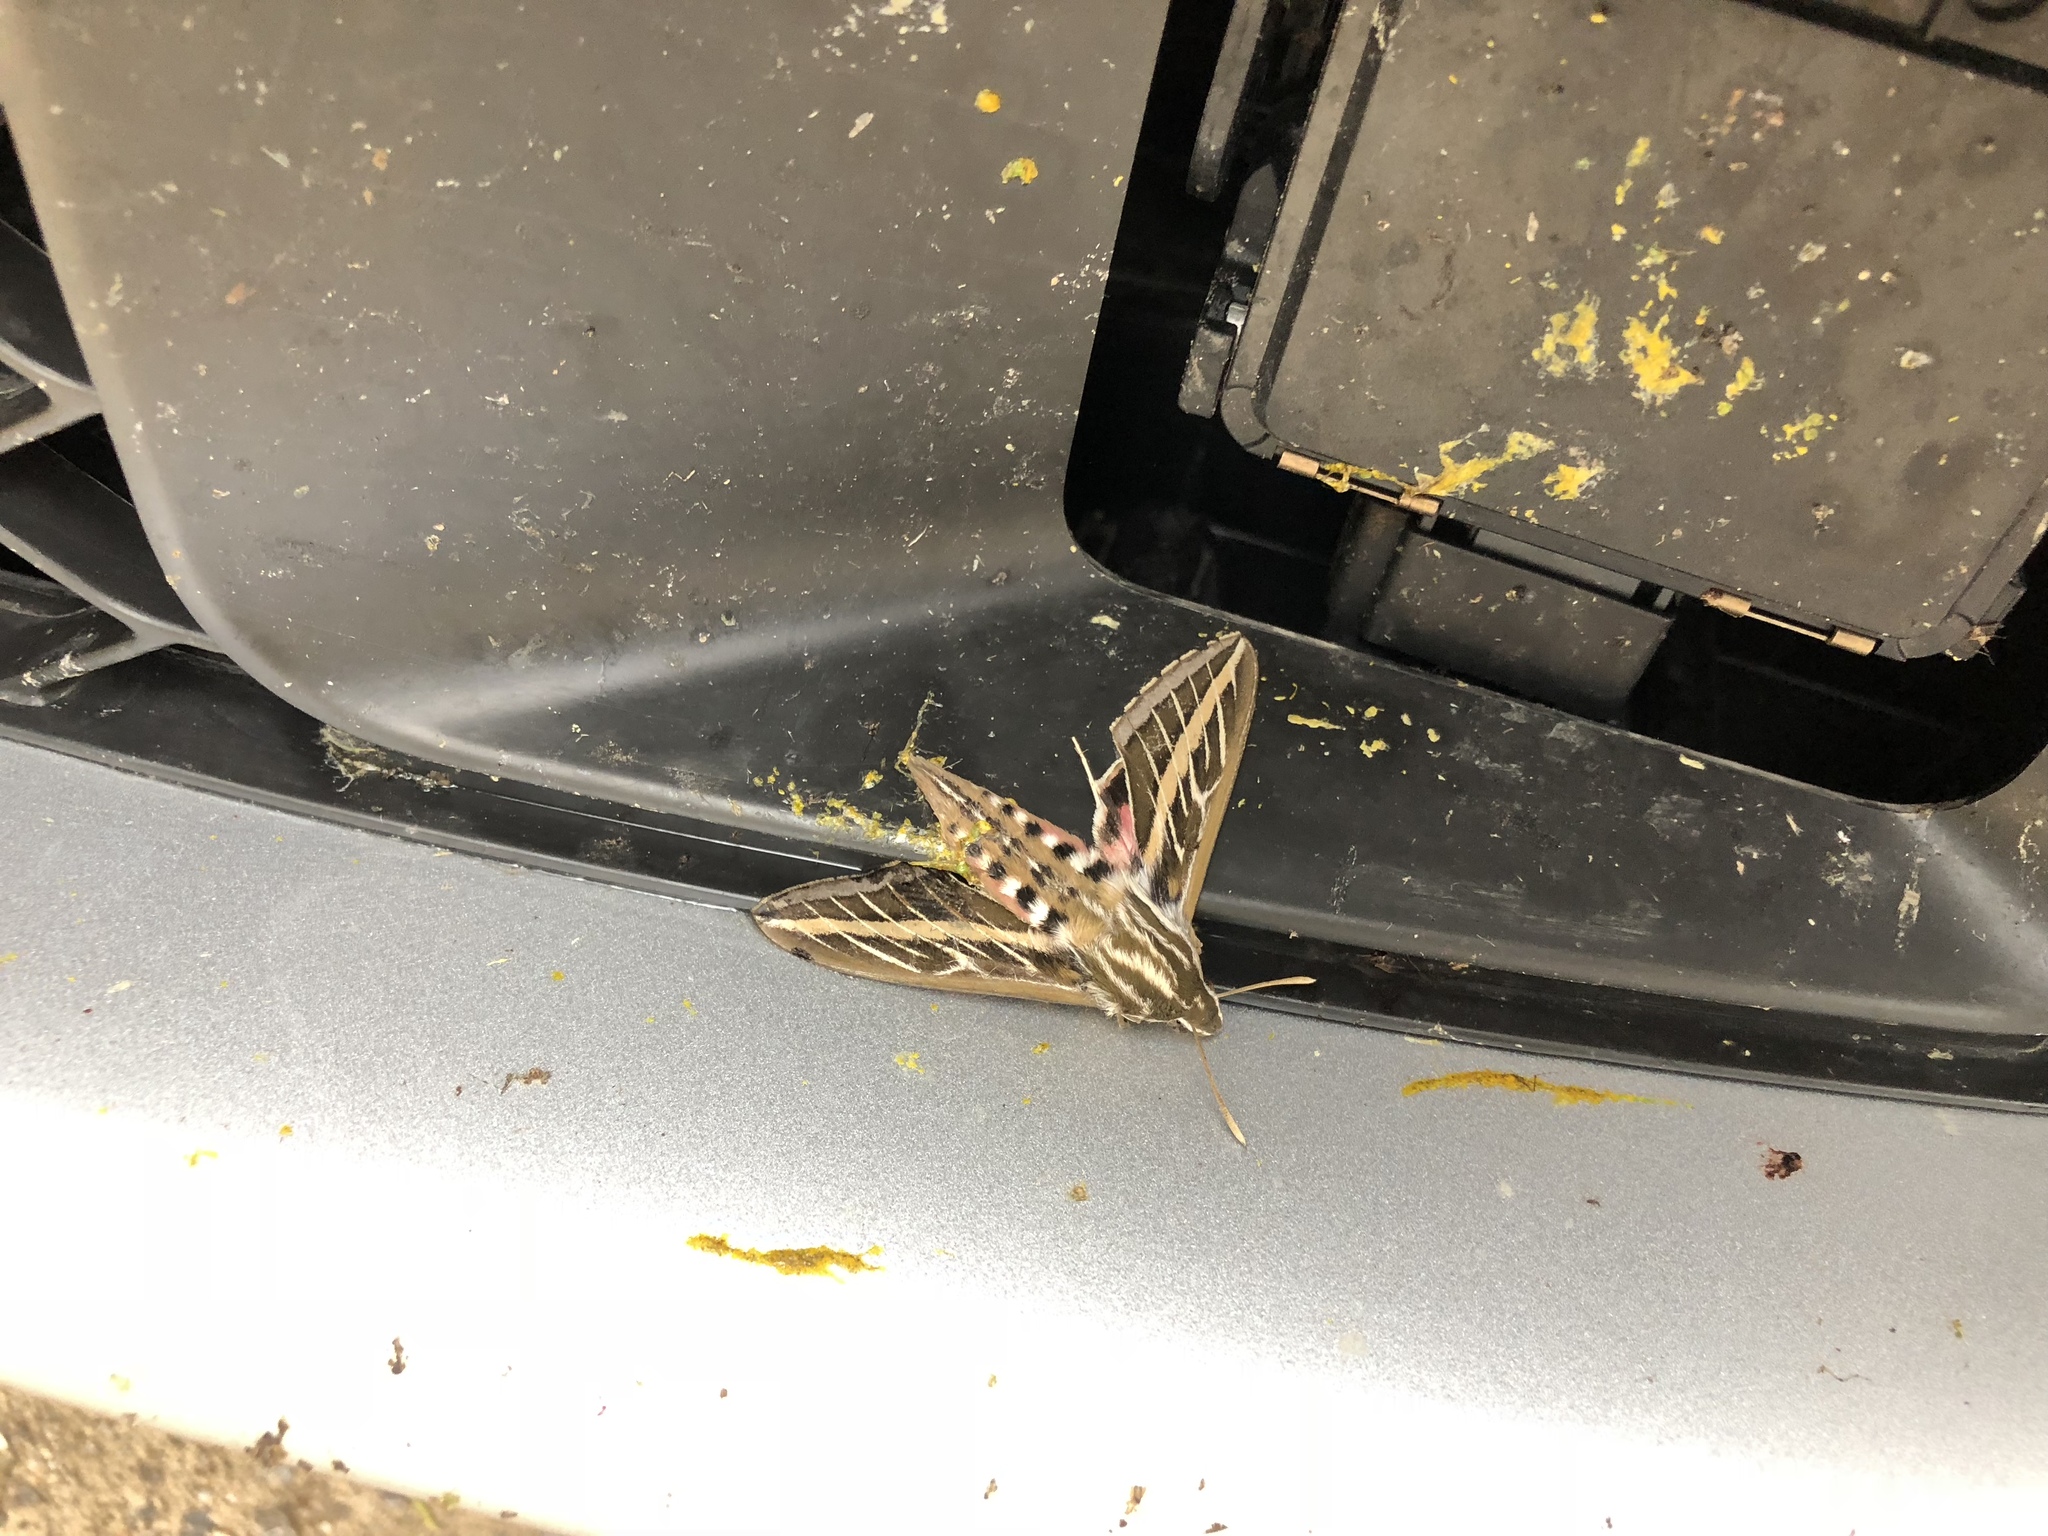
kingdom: Animalia
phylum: Arthropoda
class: Insecta
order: Lepidoptera
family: Sphingidae
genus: Hyles
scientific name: Hyles lineata
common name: White-lined sphinx
